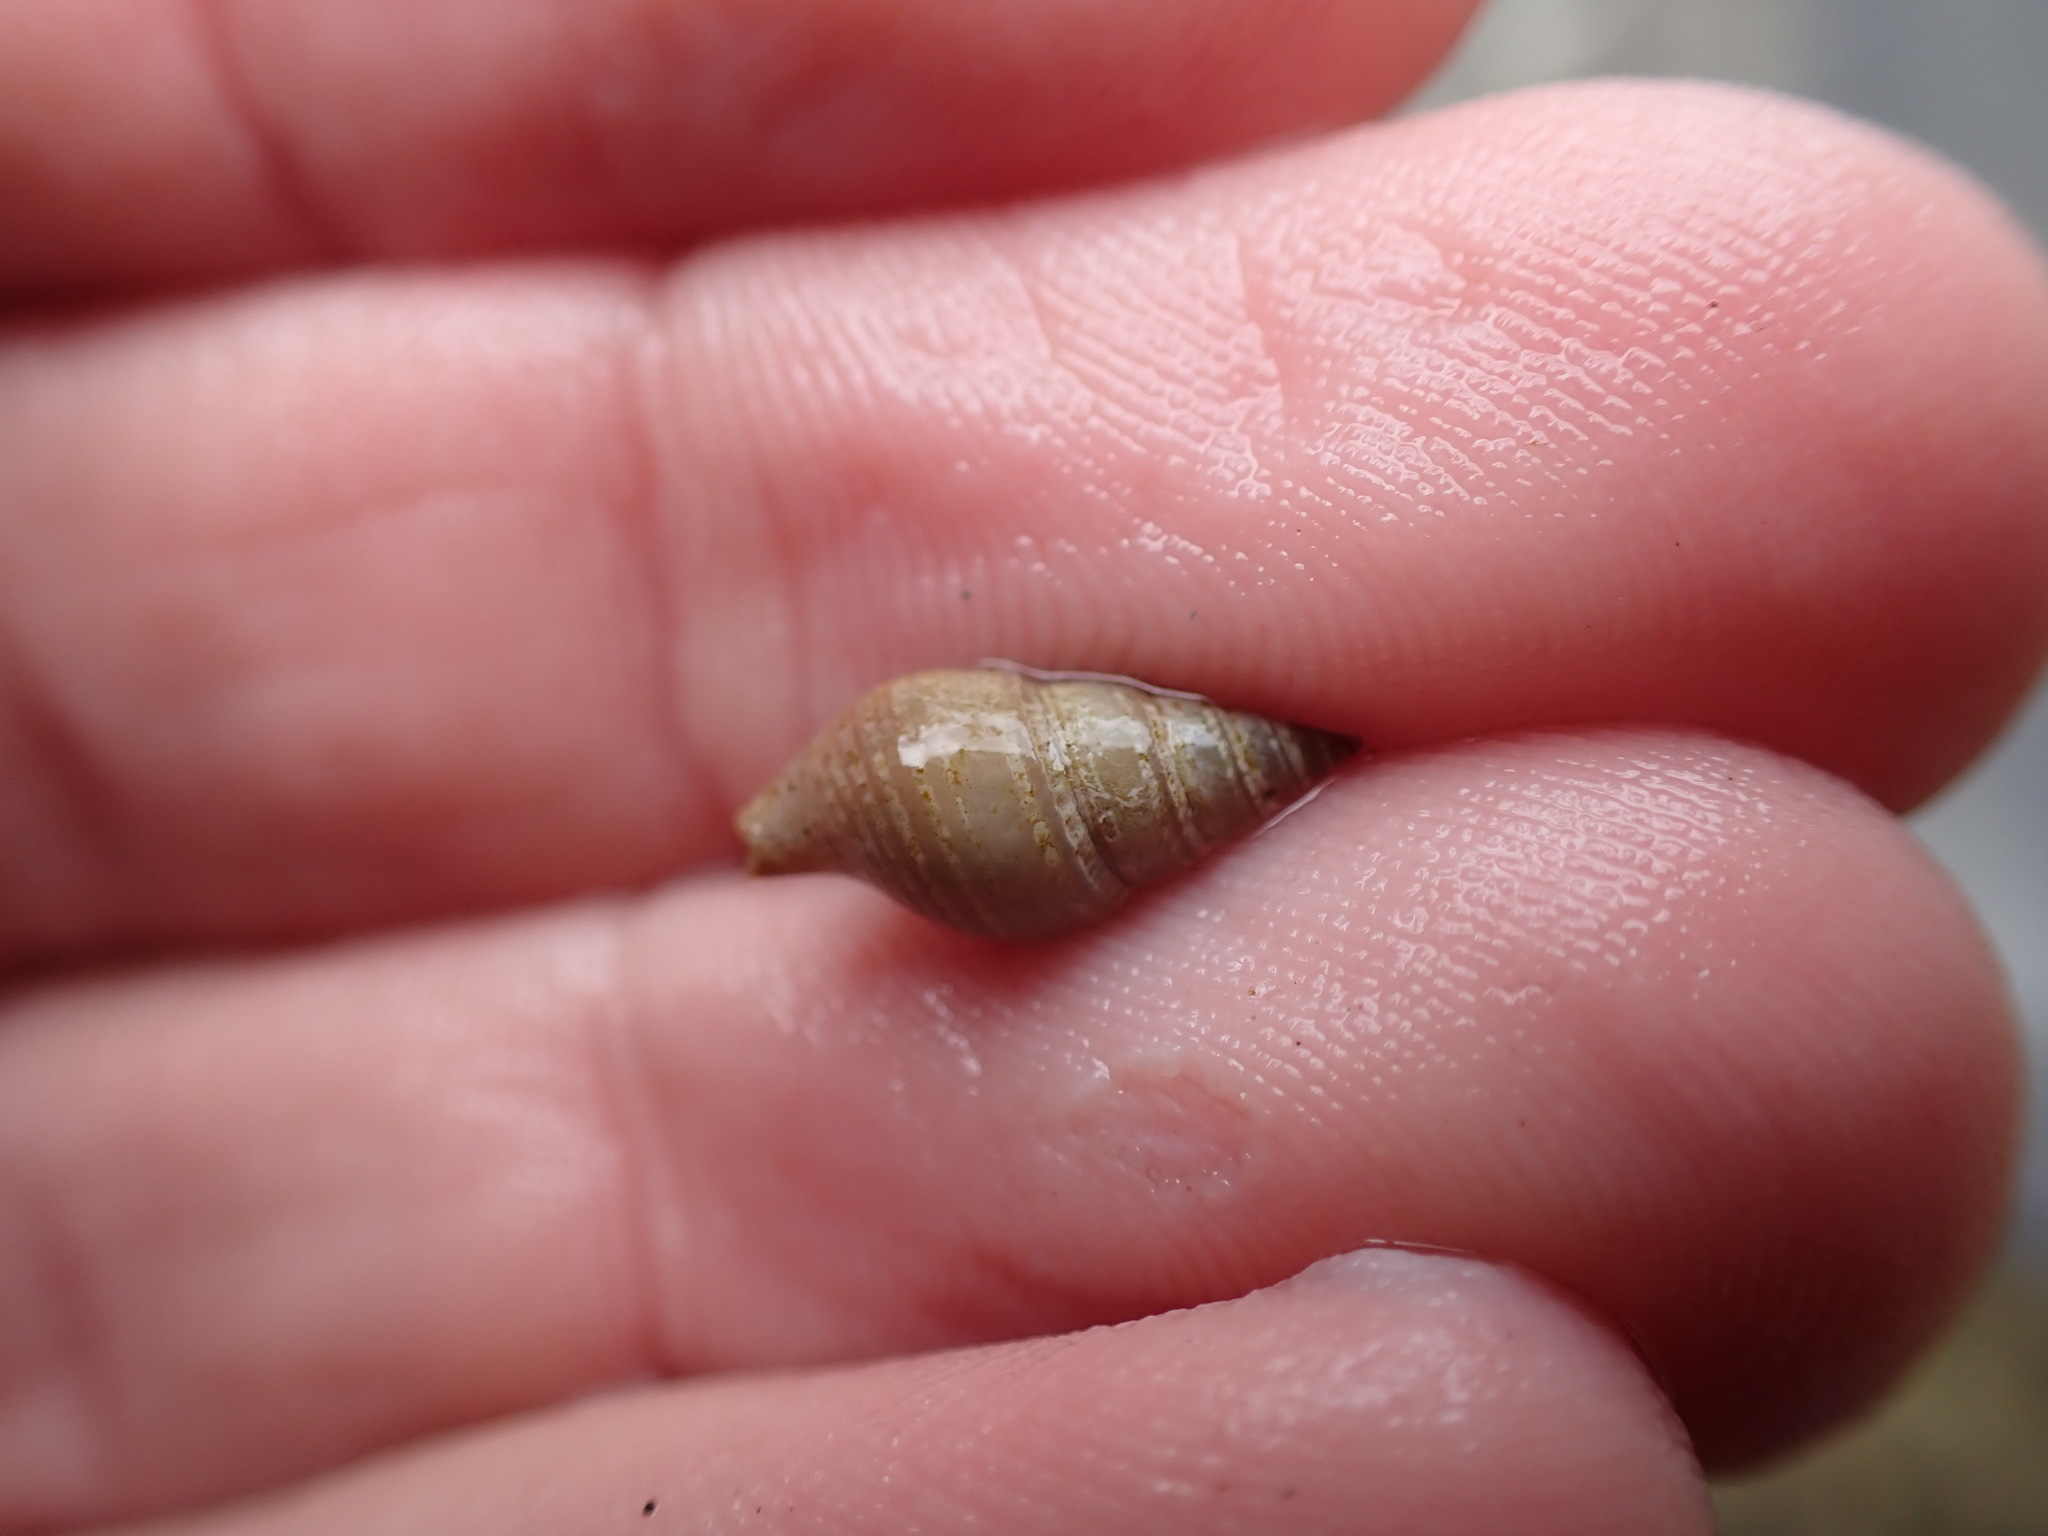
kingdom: Animalia
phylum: Mollusca
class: Gastropoda
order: Neogastropoda
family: Borsoniidae
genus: Phenatoma
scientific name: Phenatoma zealandicum
